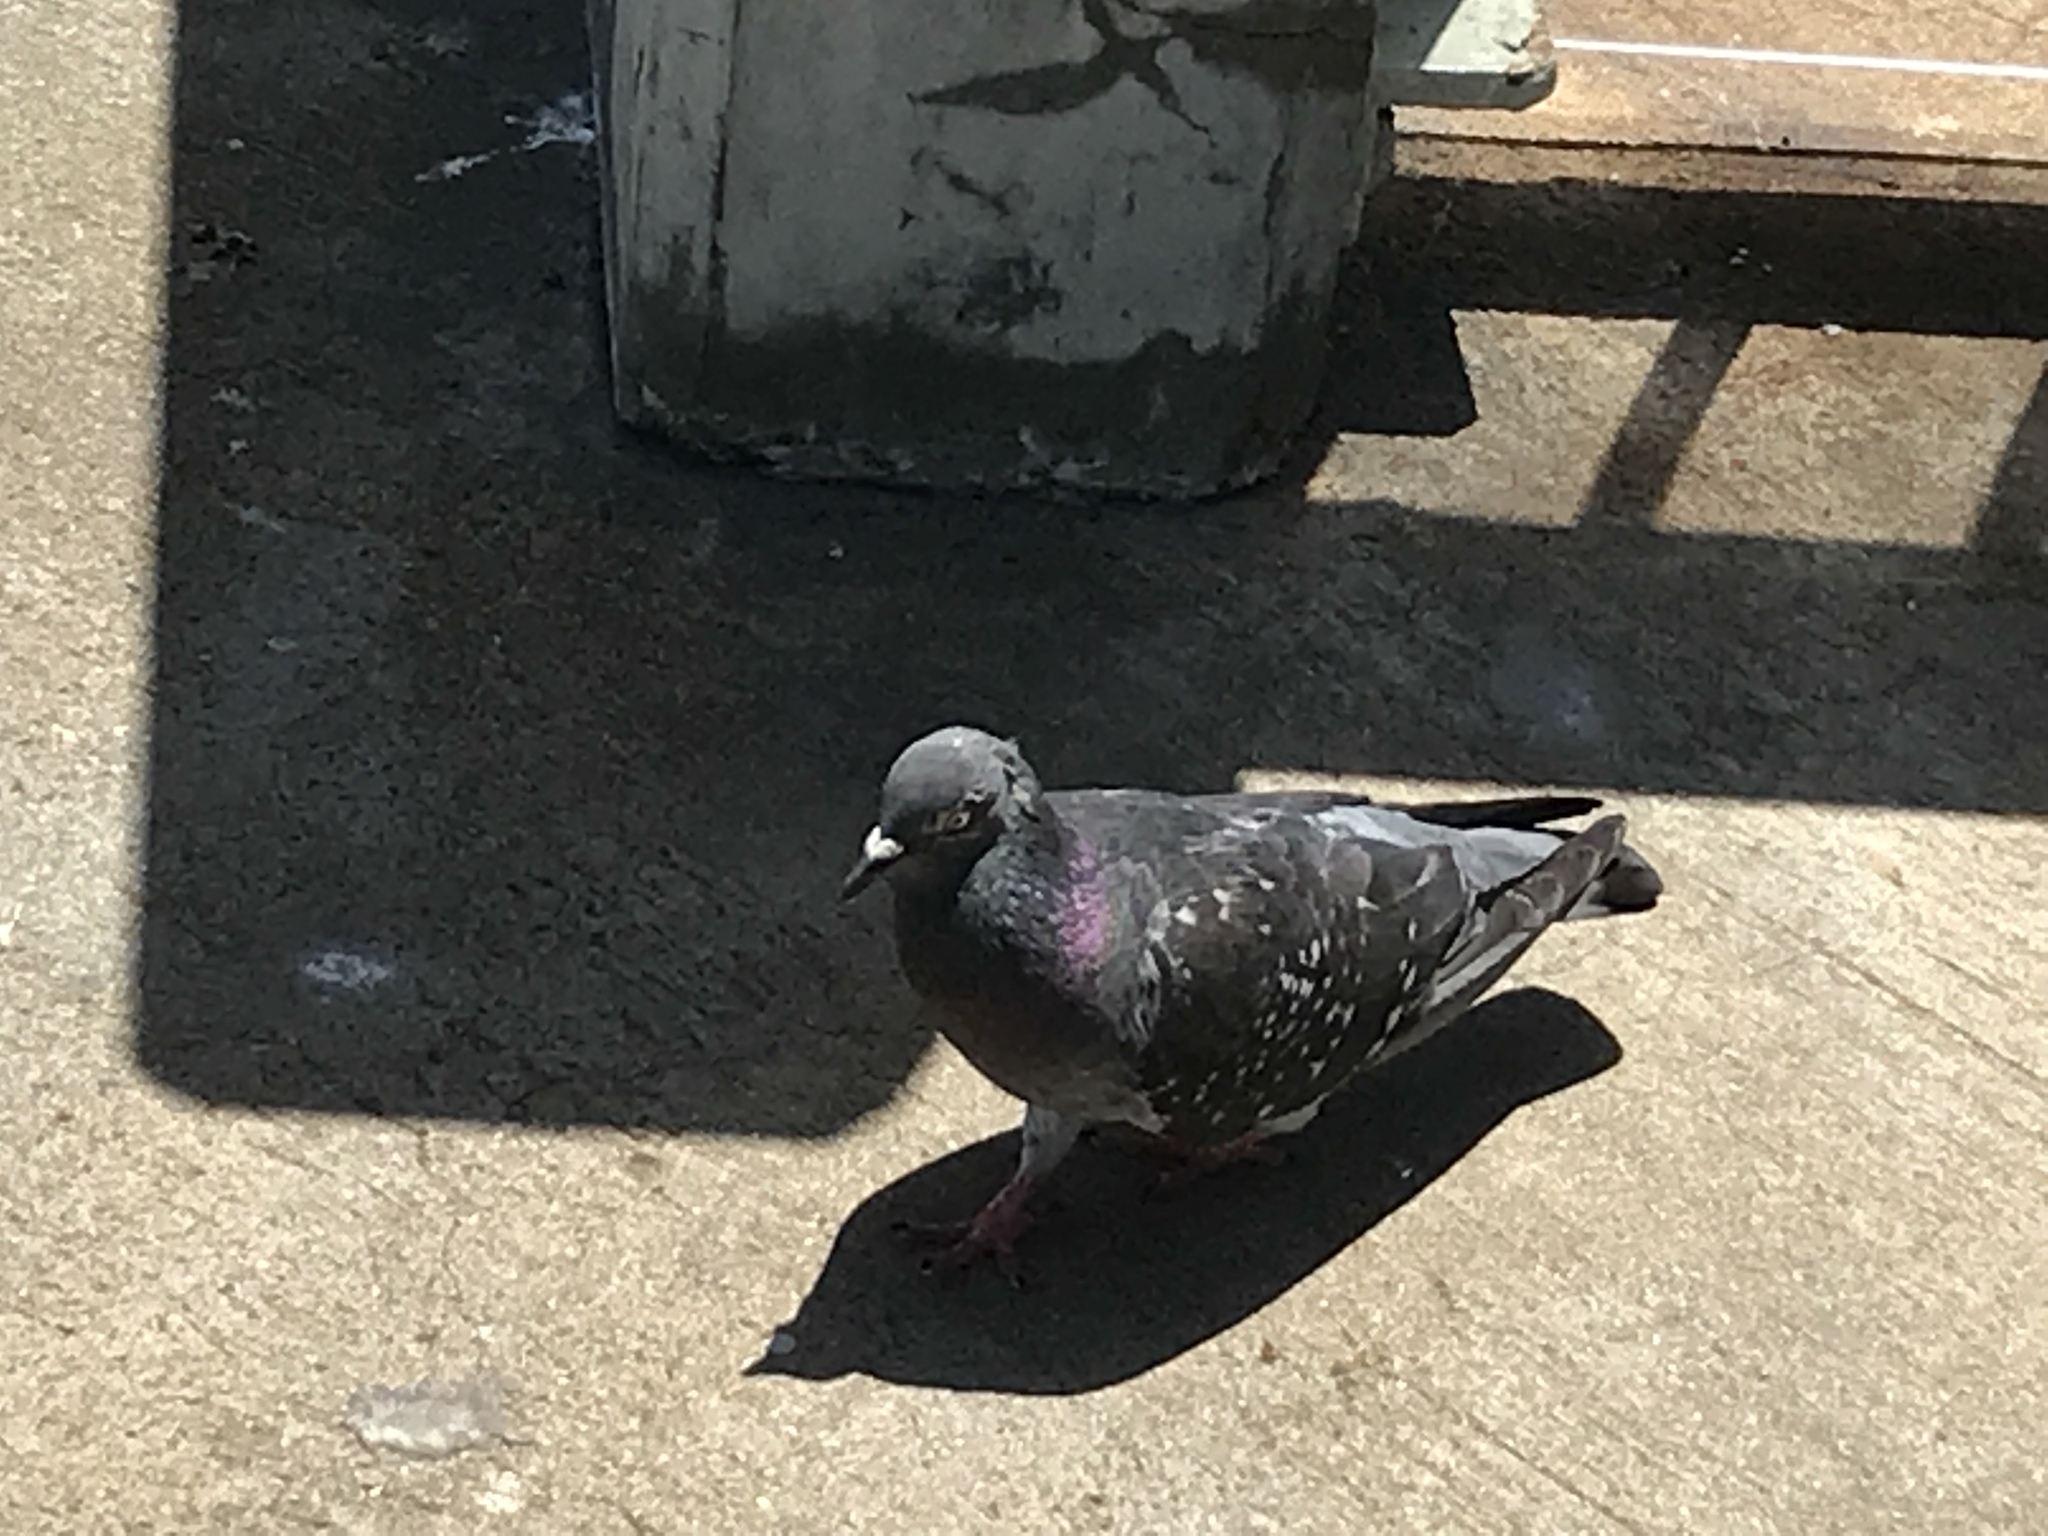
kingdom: Animalia
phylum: Chordata
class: Aves
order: Columbiformes
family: Columbidae
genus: Columba
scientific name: Columba livia
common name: Rock pigeon
